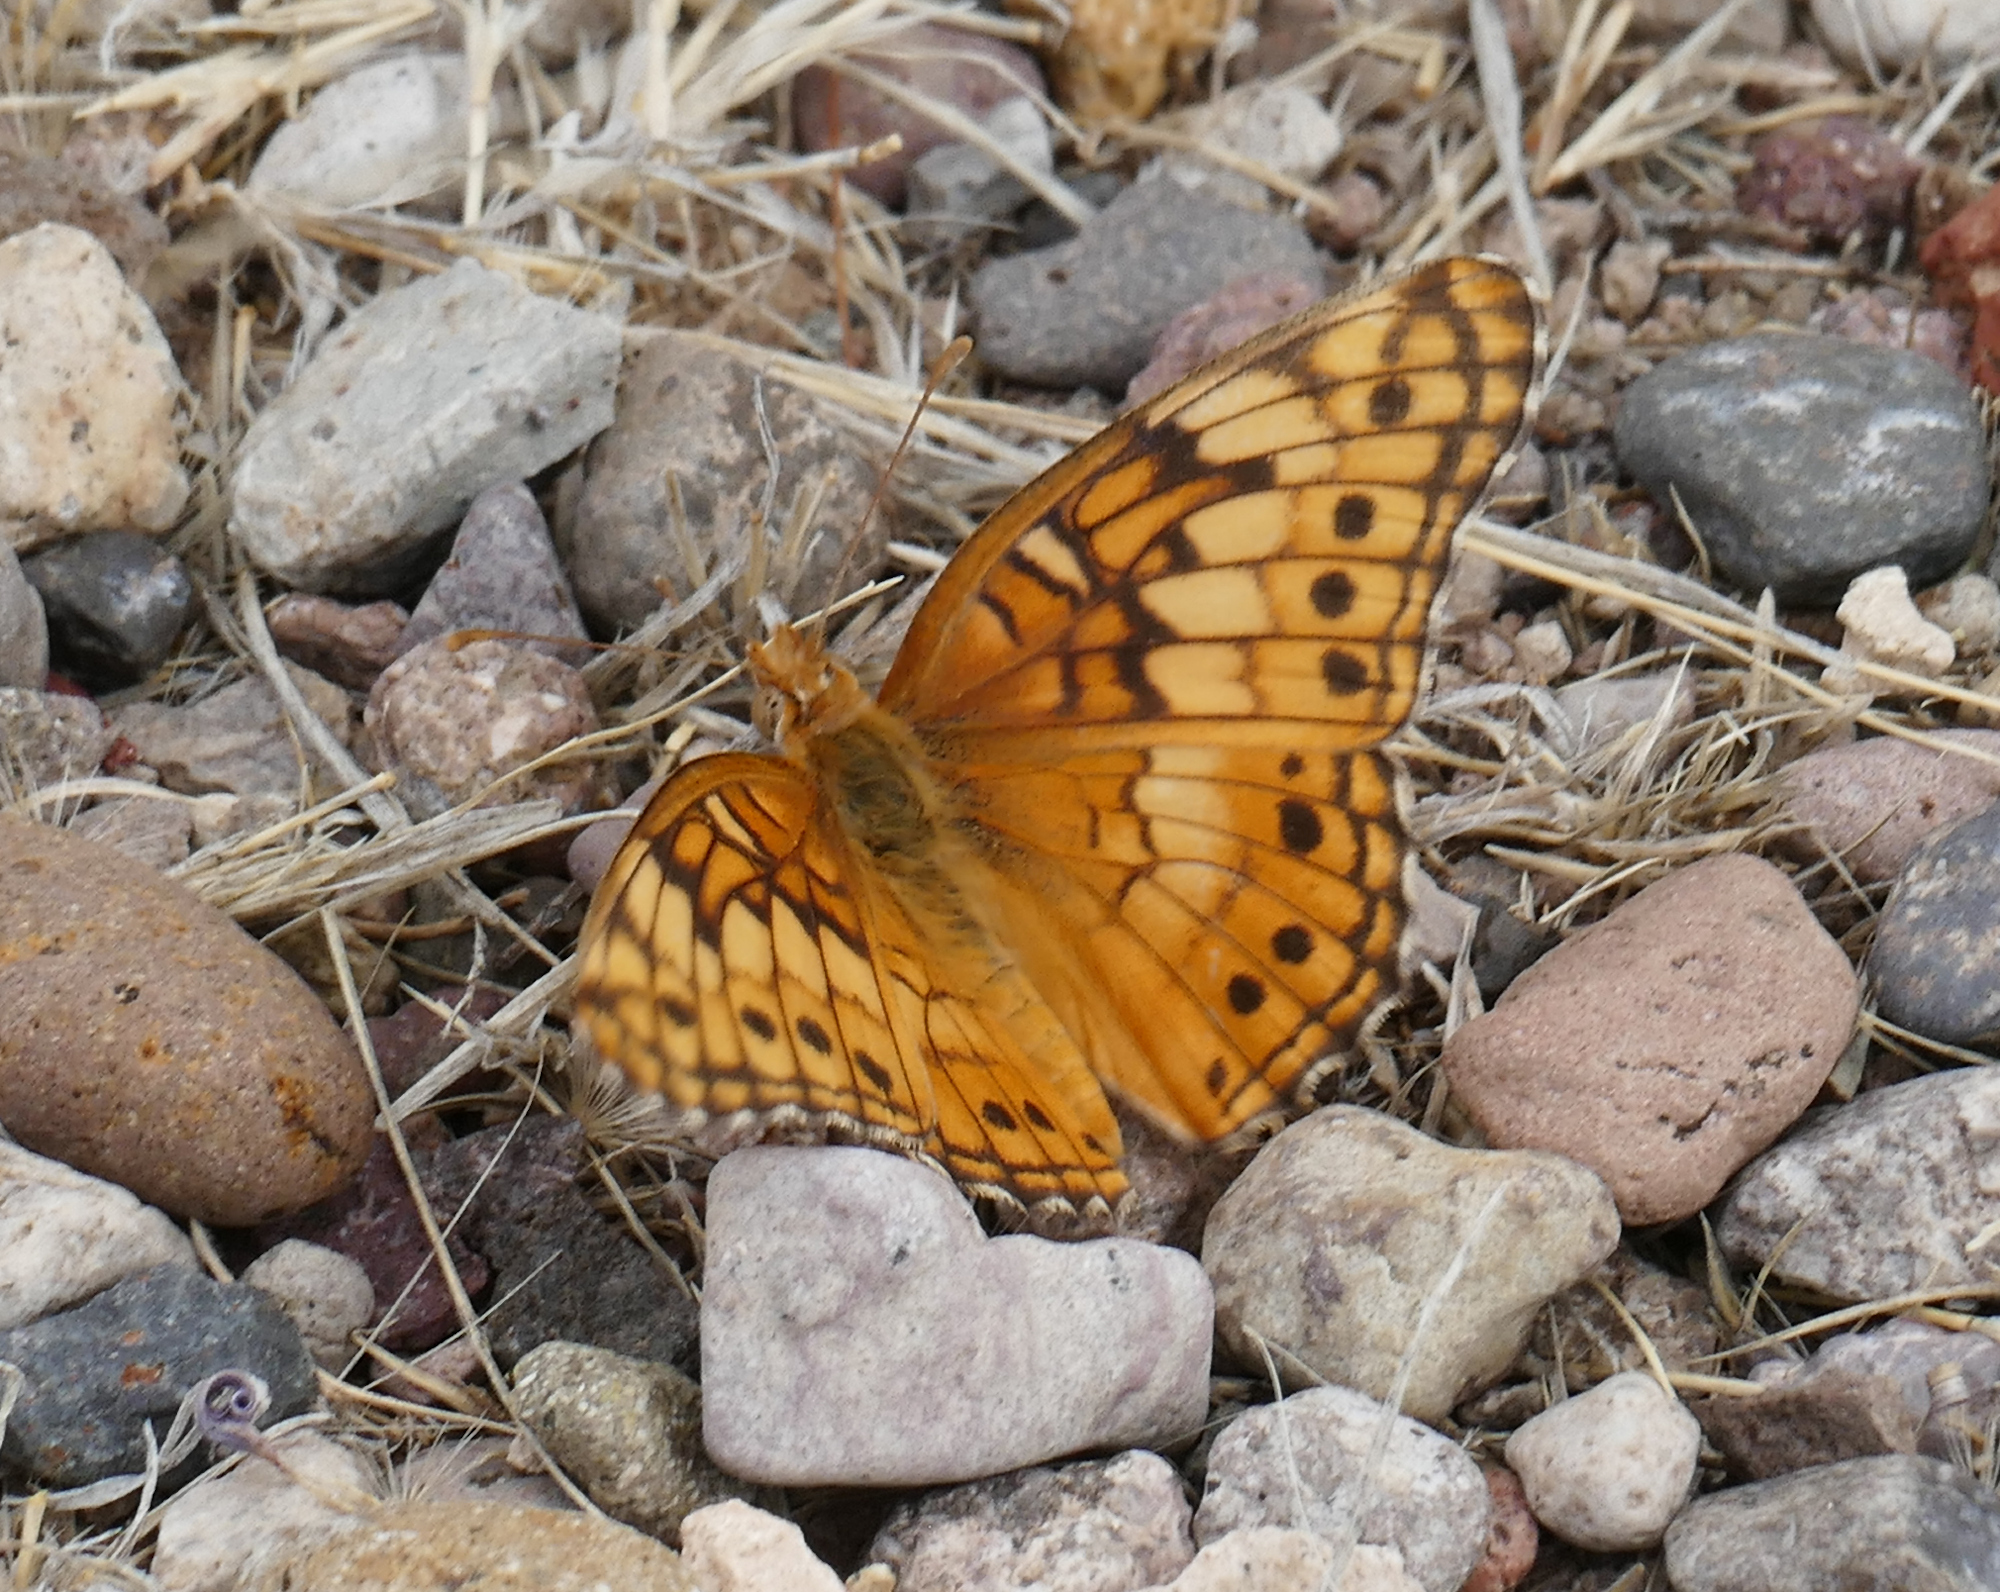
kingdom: Animalia
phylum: Arthropoda
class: Insecta
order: Lepidoptera
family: Nymphalidae
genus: Euptoieta
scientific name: Euptoieta claudia
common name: Variegated fritillary
